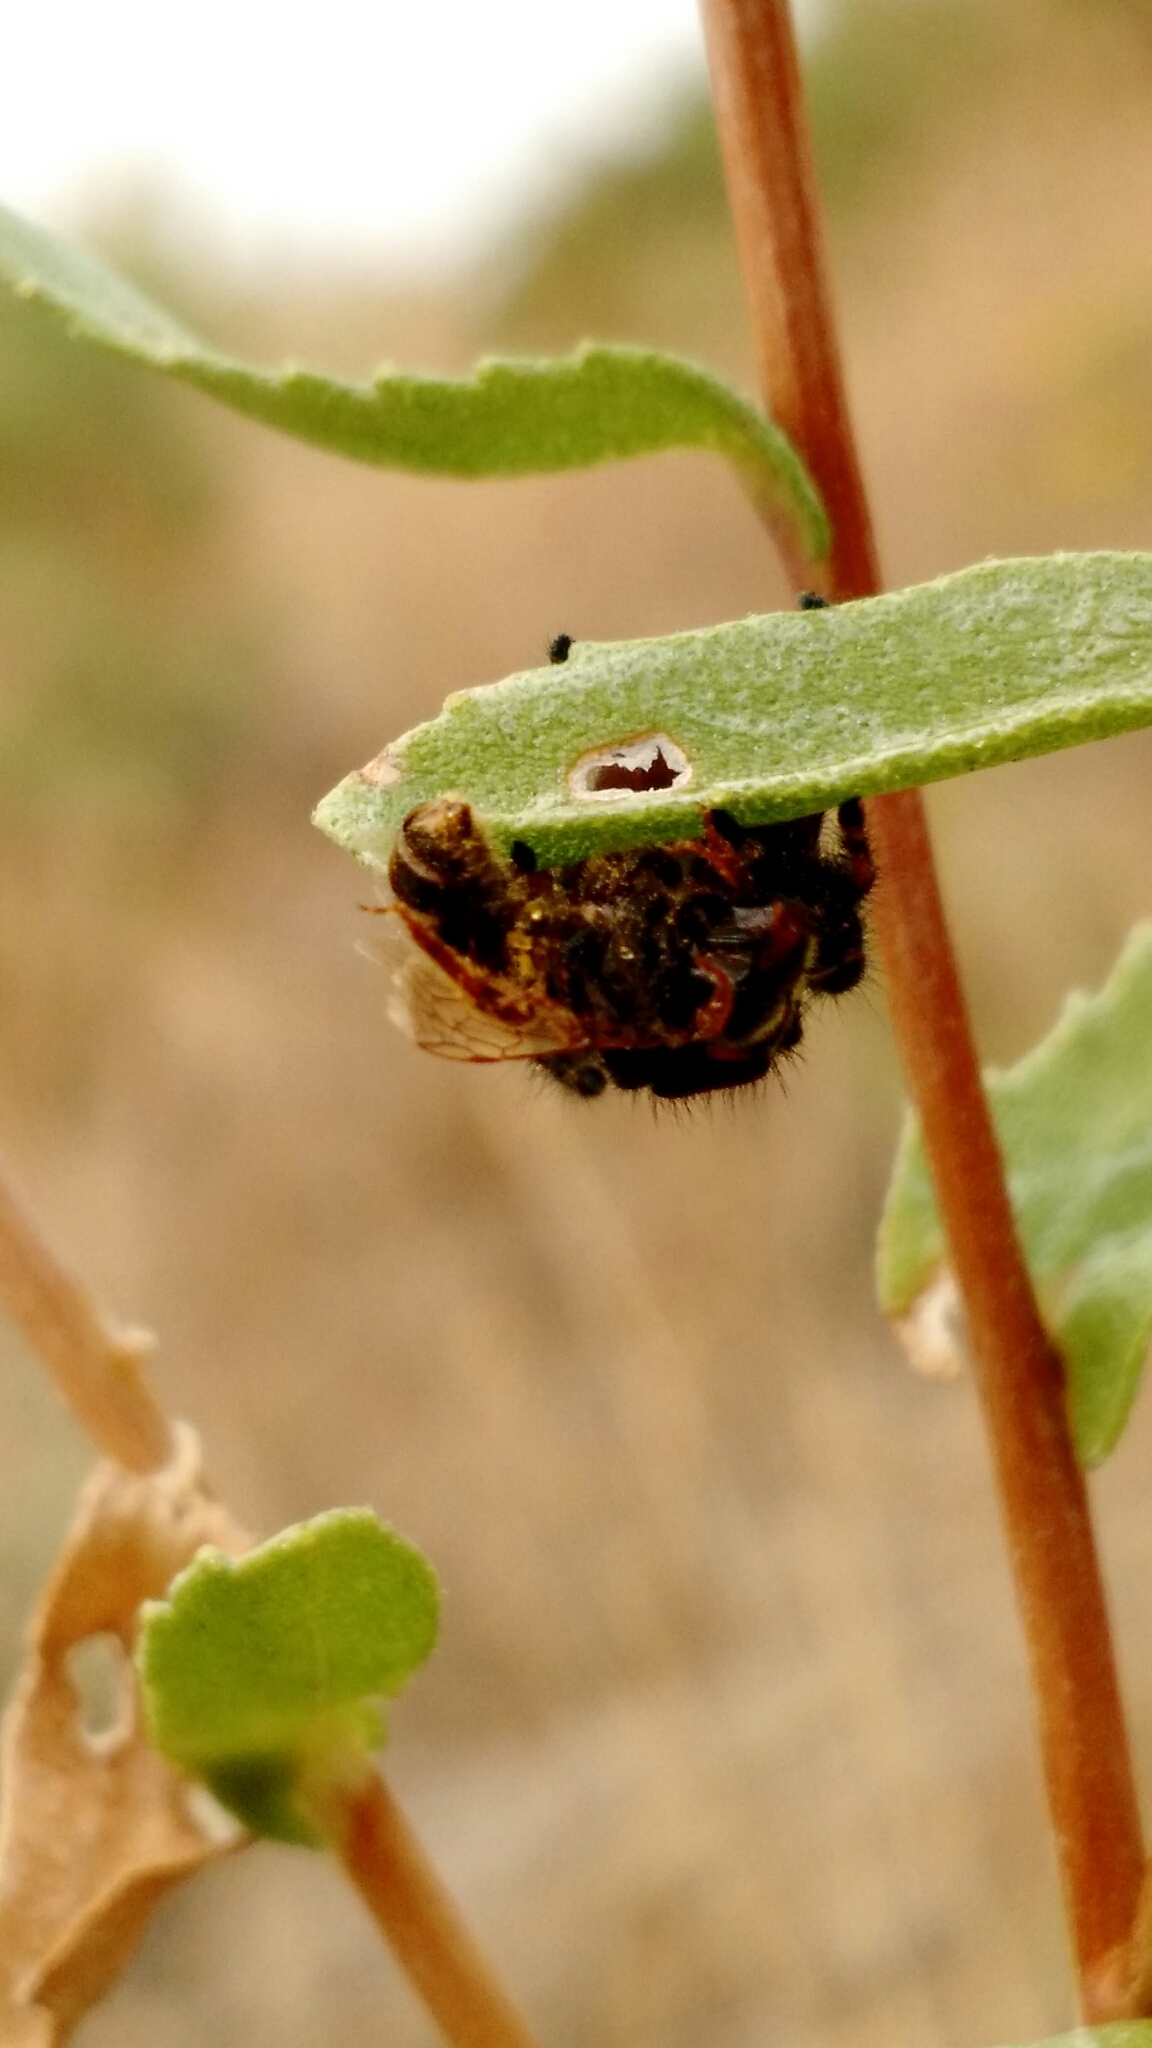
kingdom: Animalia
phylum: Arthropoda
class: Arachnida
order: Araneae
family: Salticidae
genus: Phidippus
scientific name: Phidippus apacheanus
